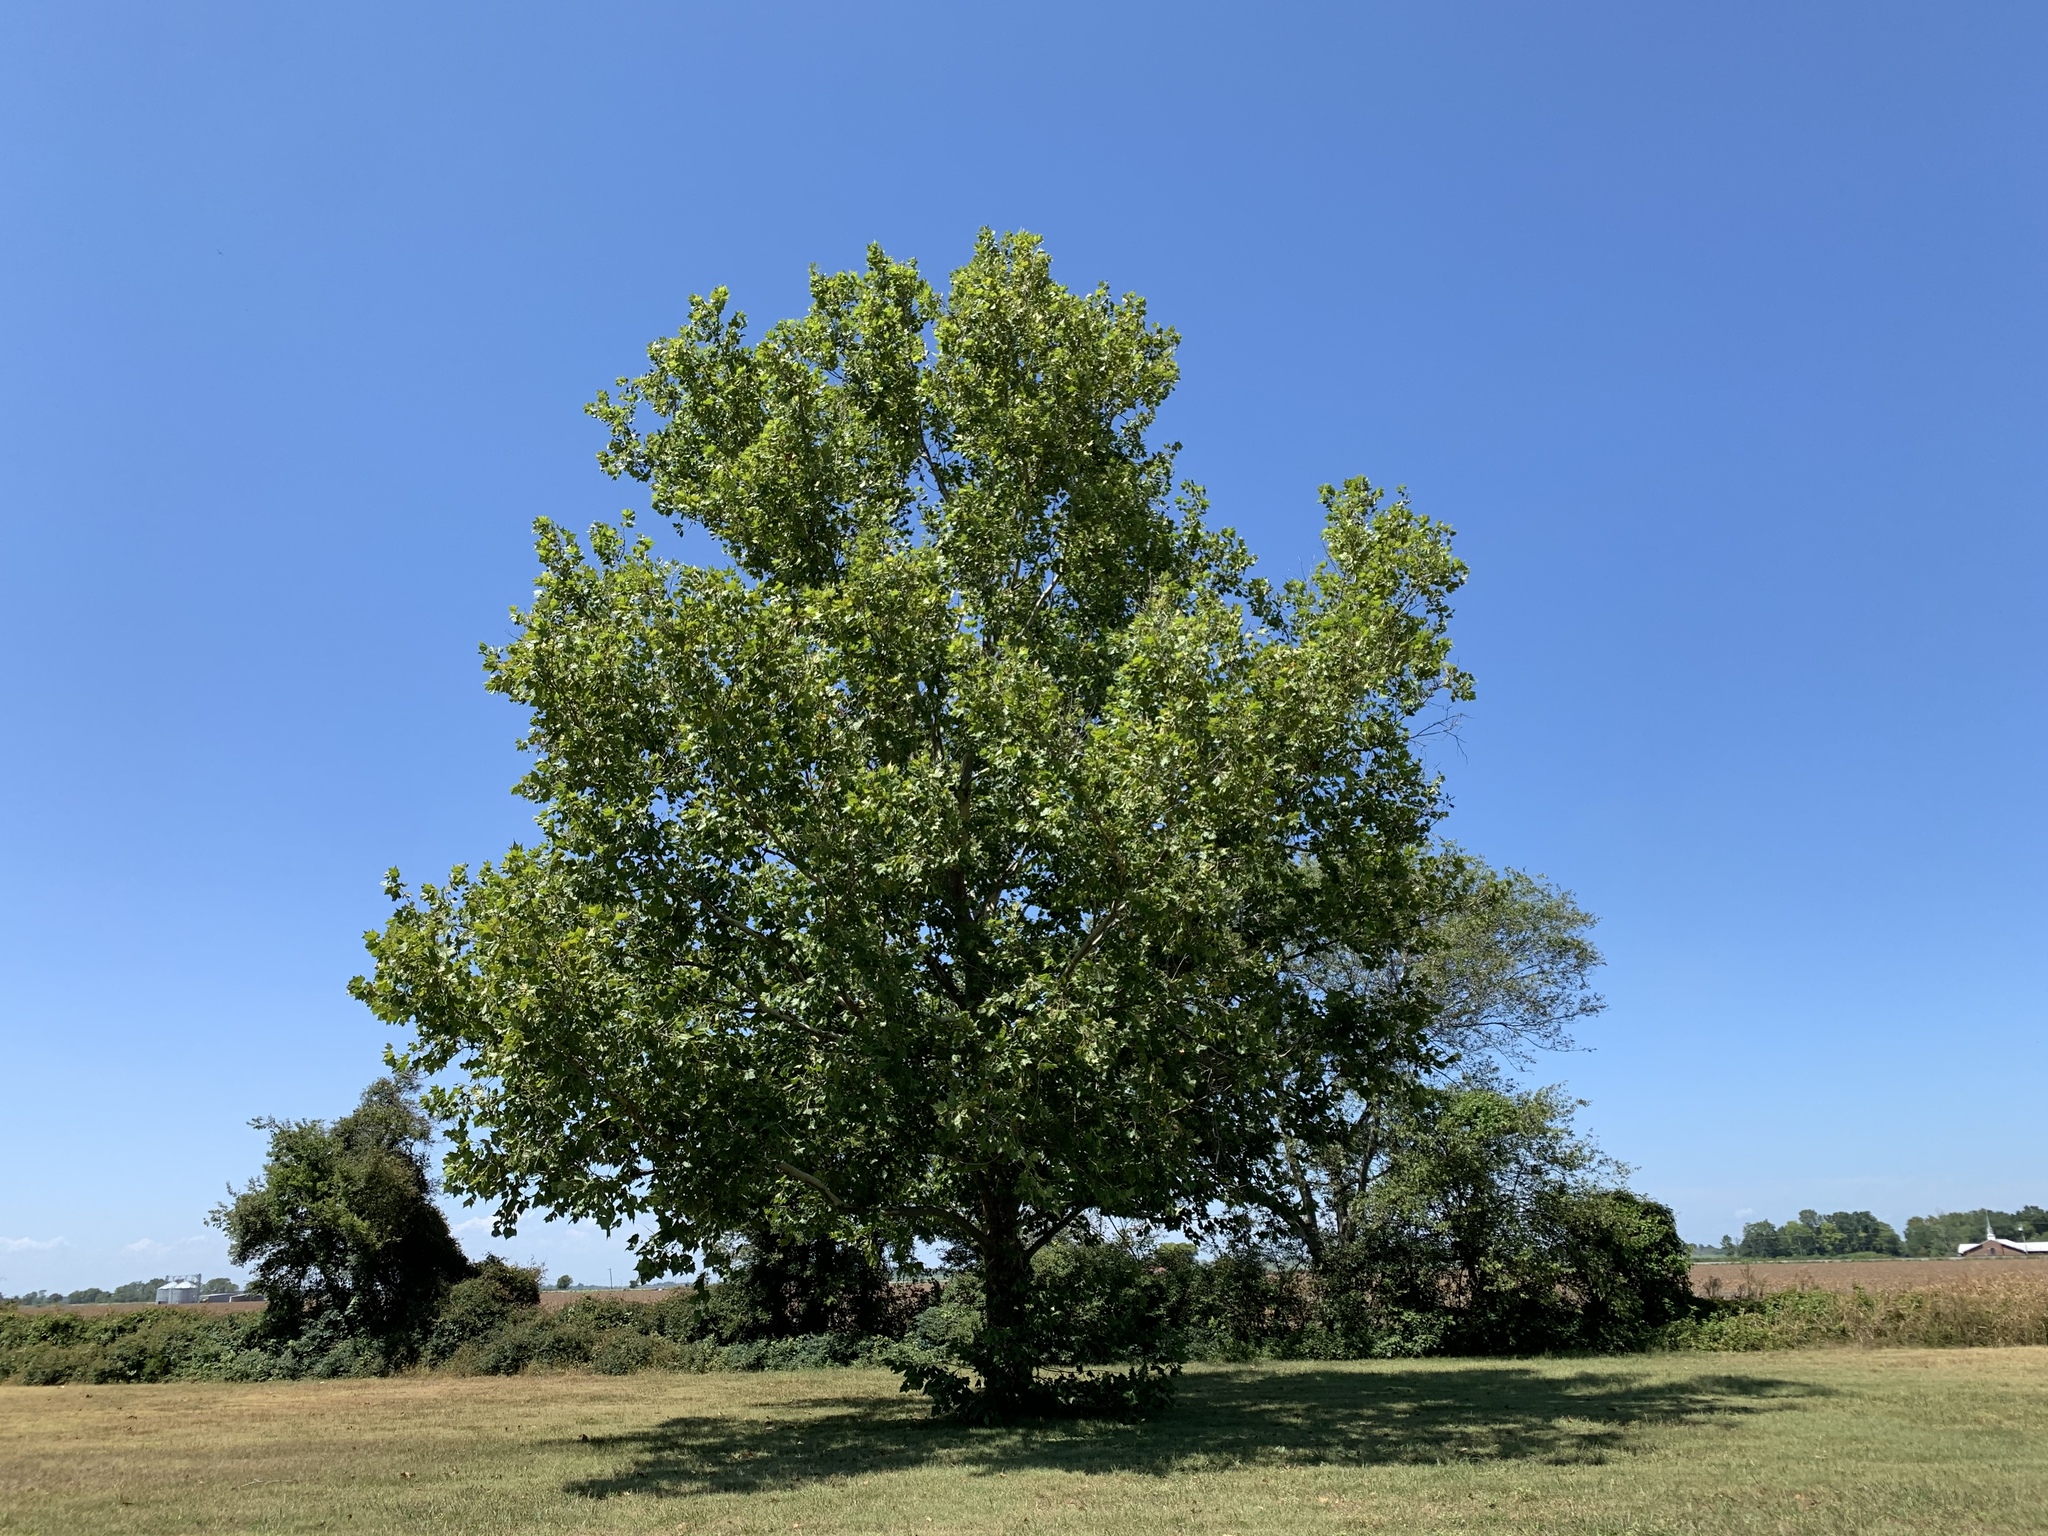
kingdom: Plantae
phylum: Tracheophyta
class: Magnoliopsida
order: Proteales
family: Platanaceae
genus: Platanus
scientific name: Platanus occidentalis
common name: American sycamore
